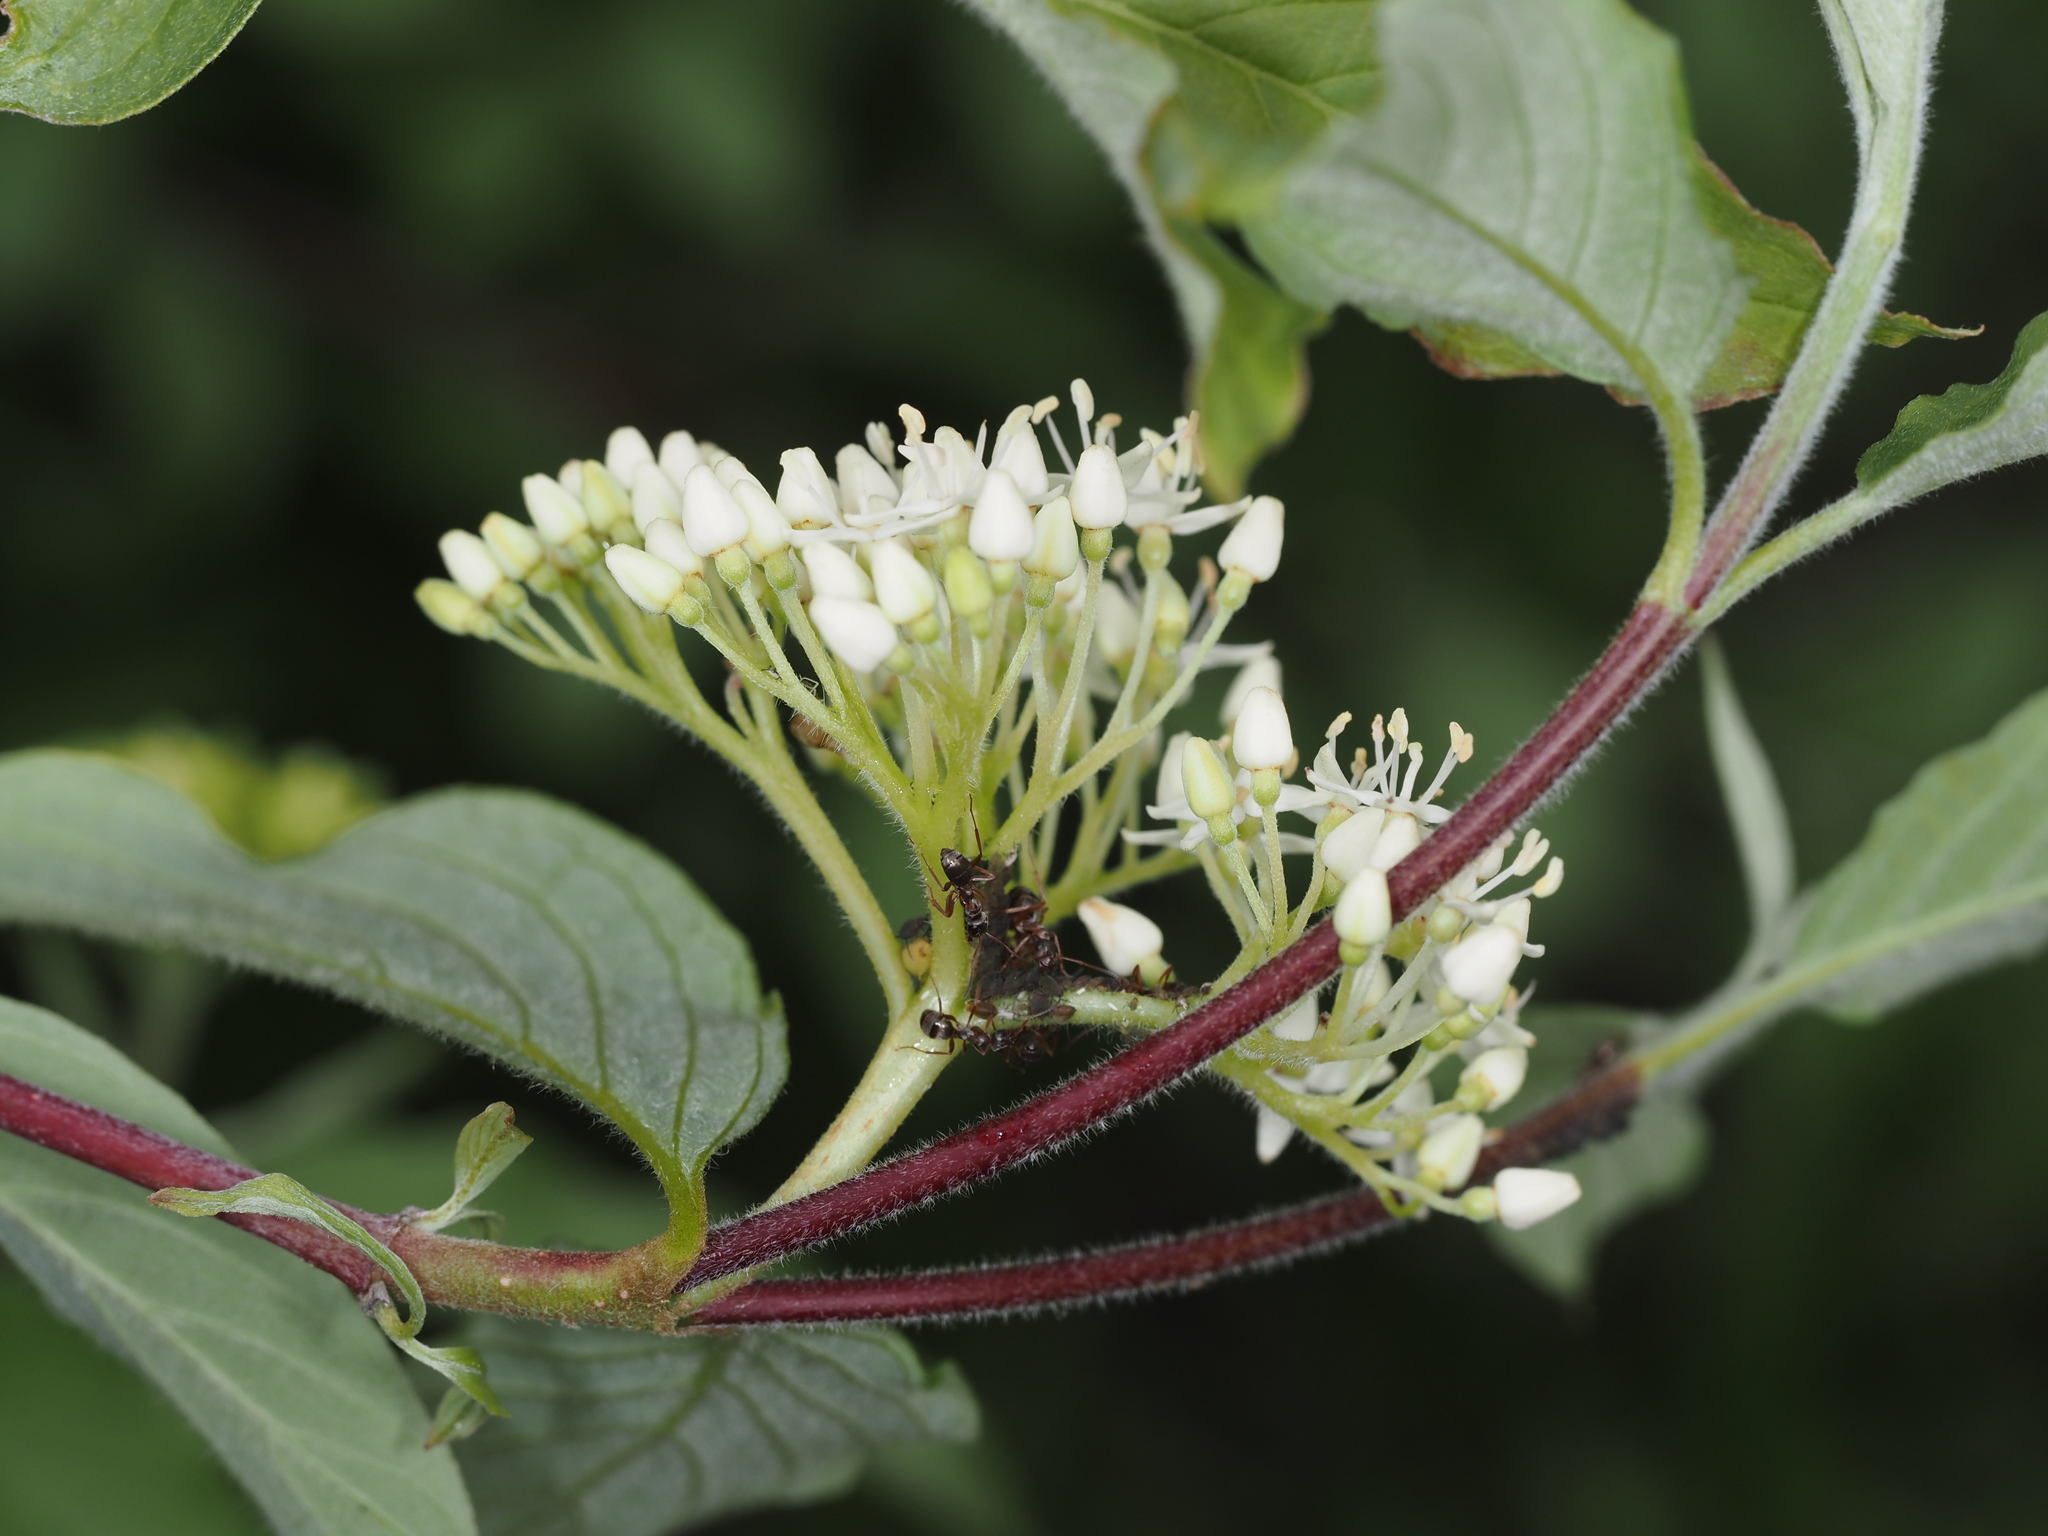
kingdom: Plantae
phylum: Tracheophyta
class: Magnoliopsida
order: Cornales
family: Cornaceae
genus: Cornus
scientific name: Cornus sericea
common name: Red-osier dogwood
